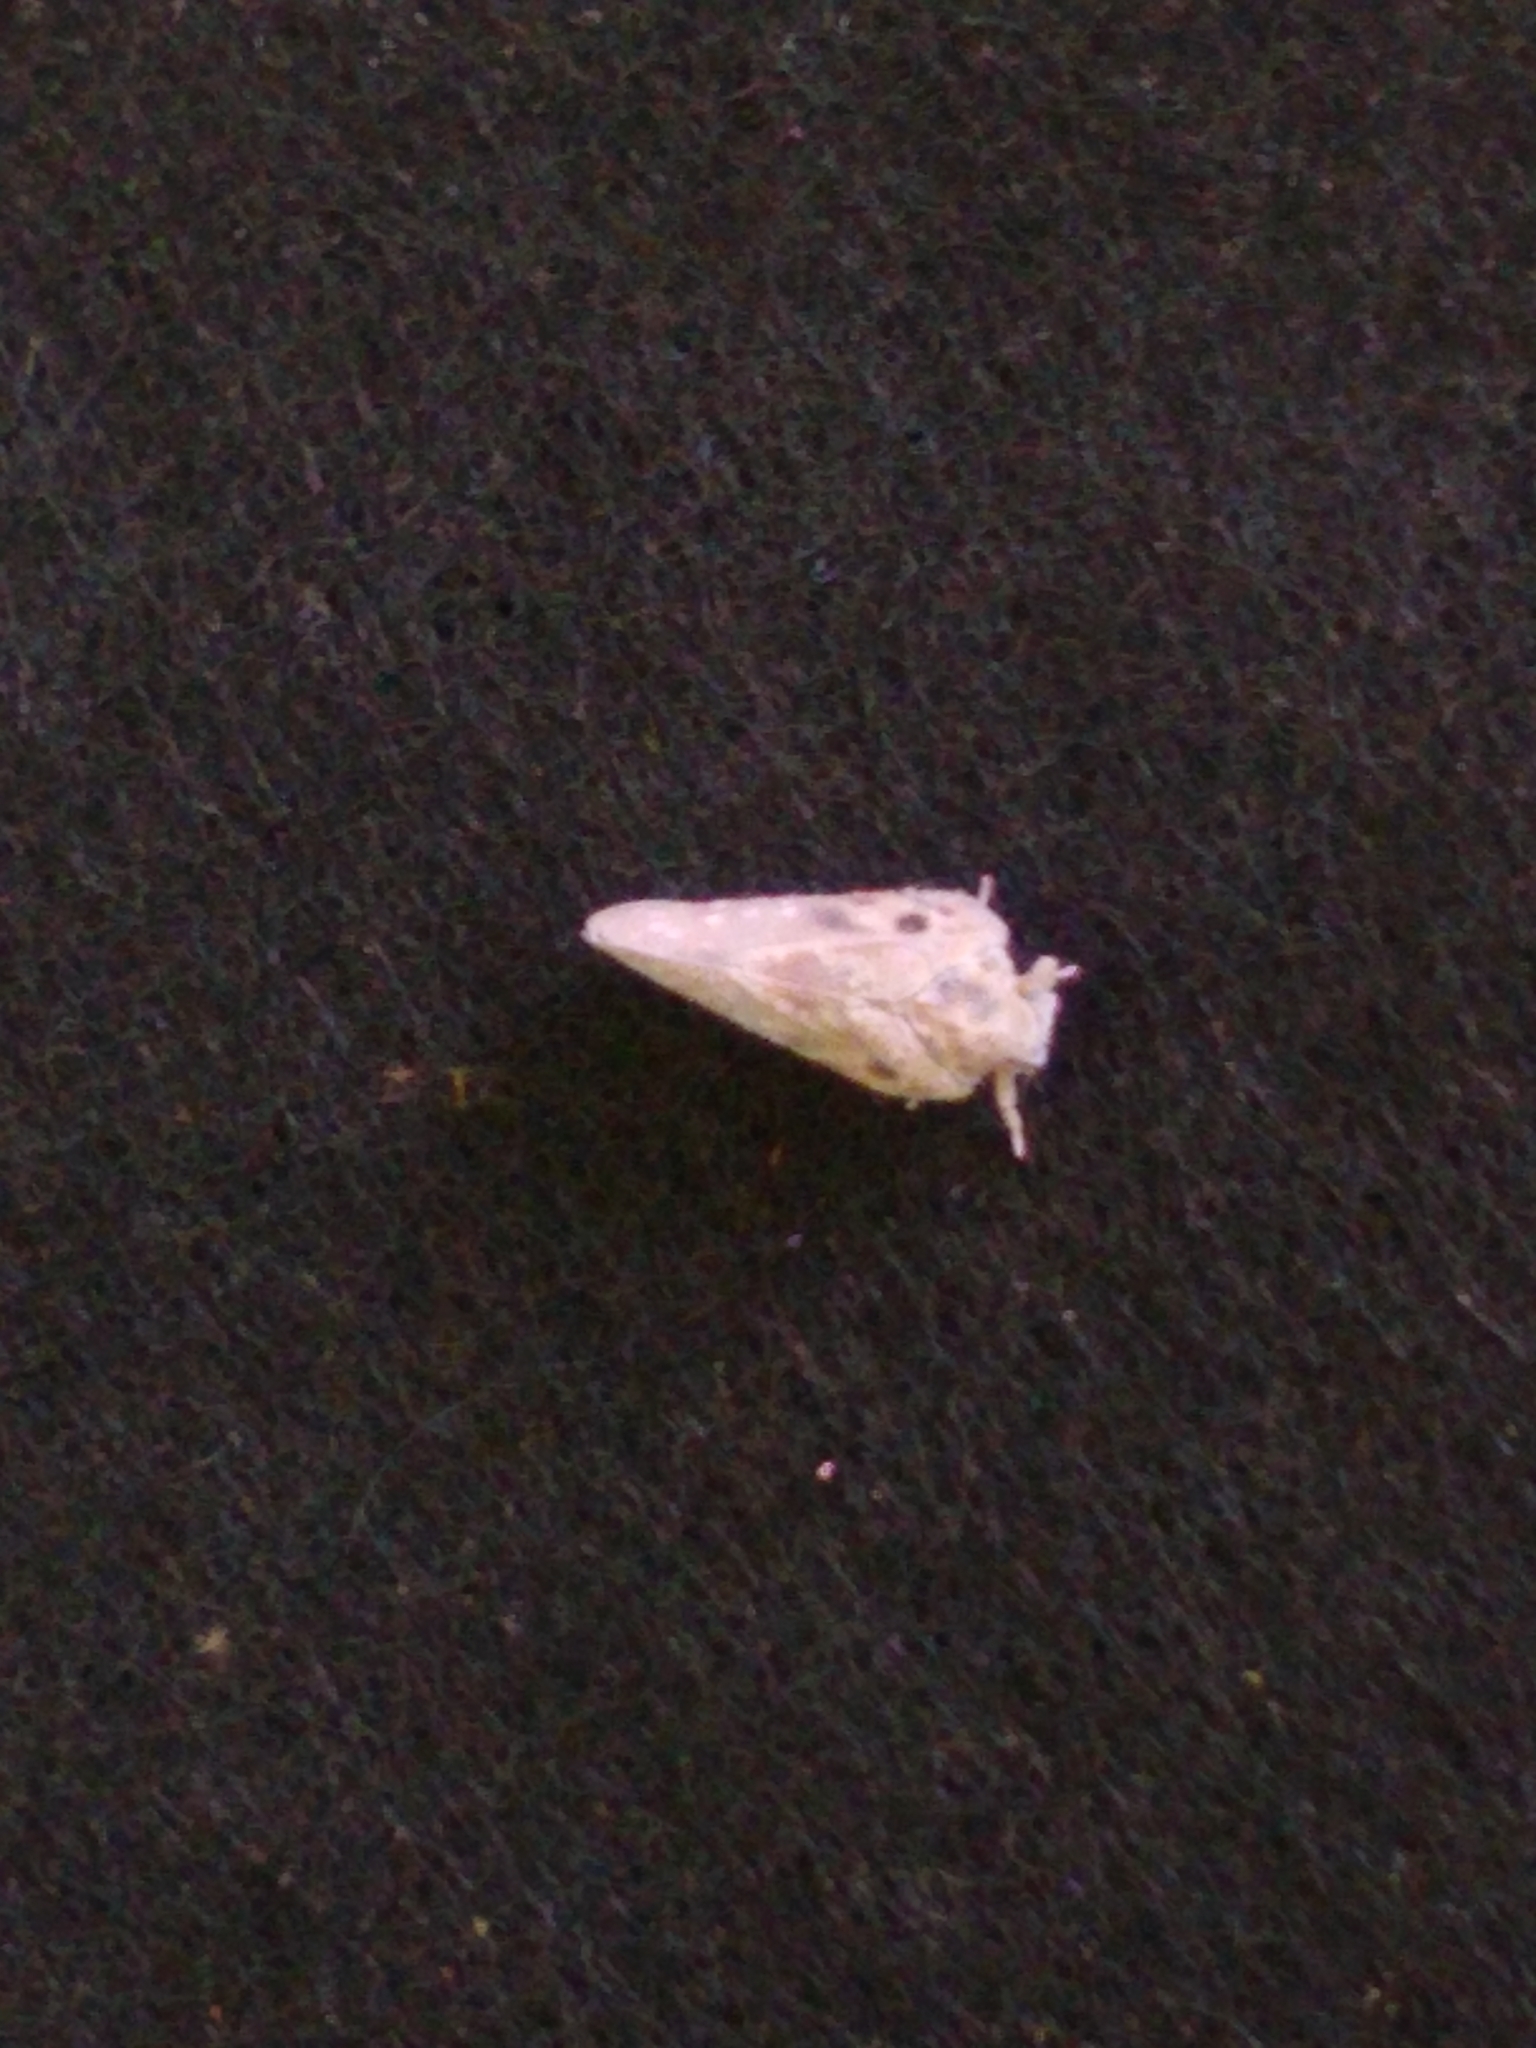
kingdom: Animalia
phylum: Arthropoda
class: Insecta
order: Hemiptera
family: Flatidae
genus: Metcalfa
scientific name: Metcalfa pruinosa
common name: Citrus flatid planthopper
